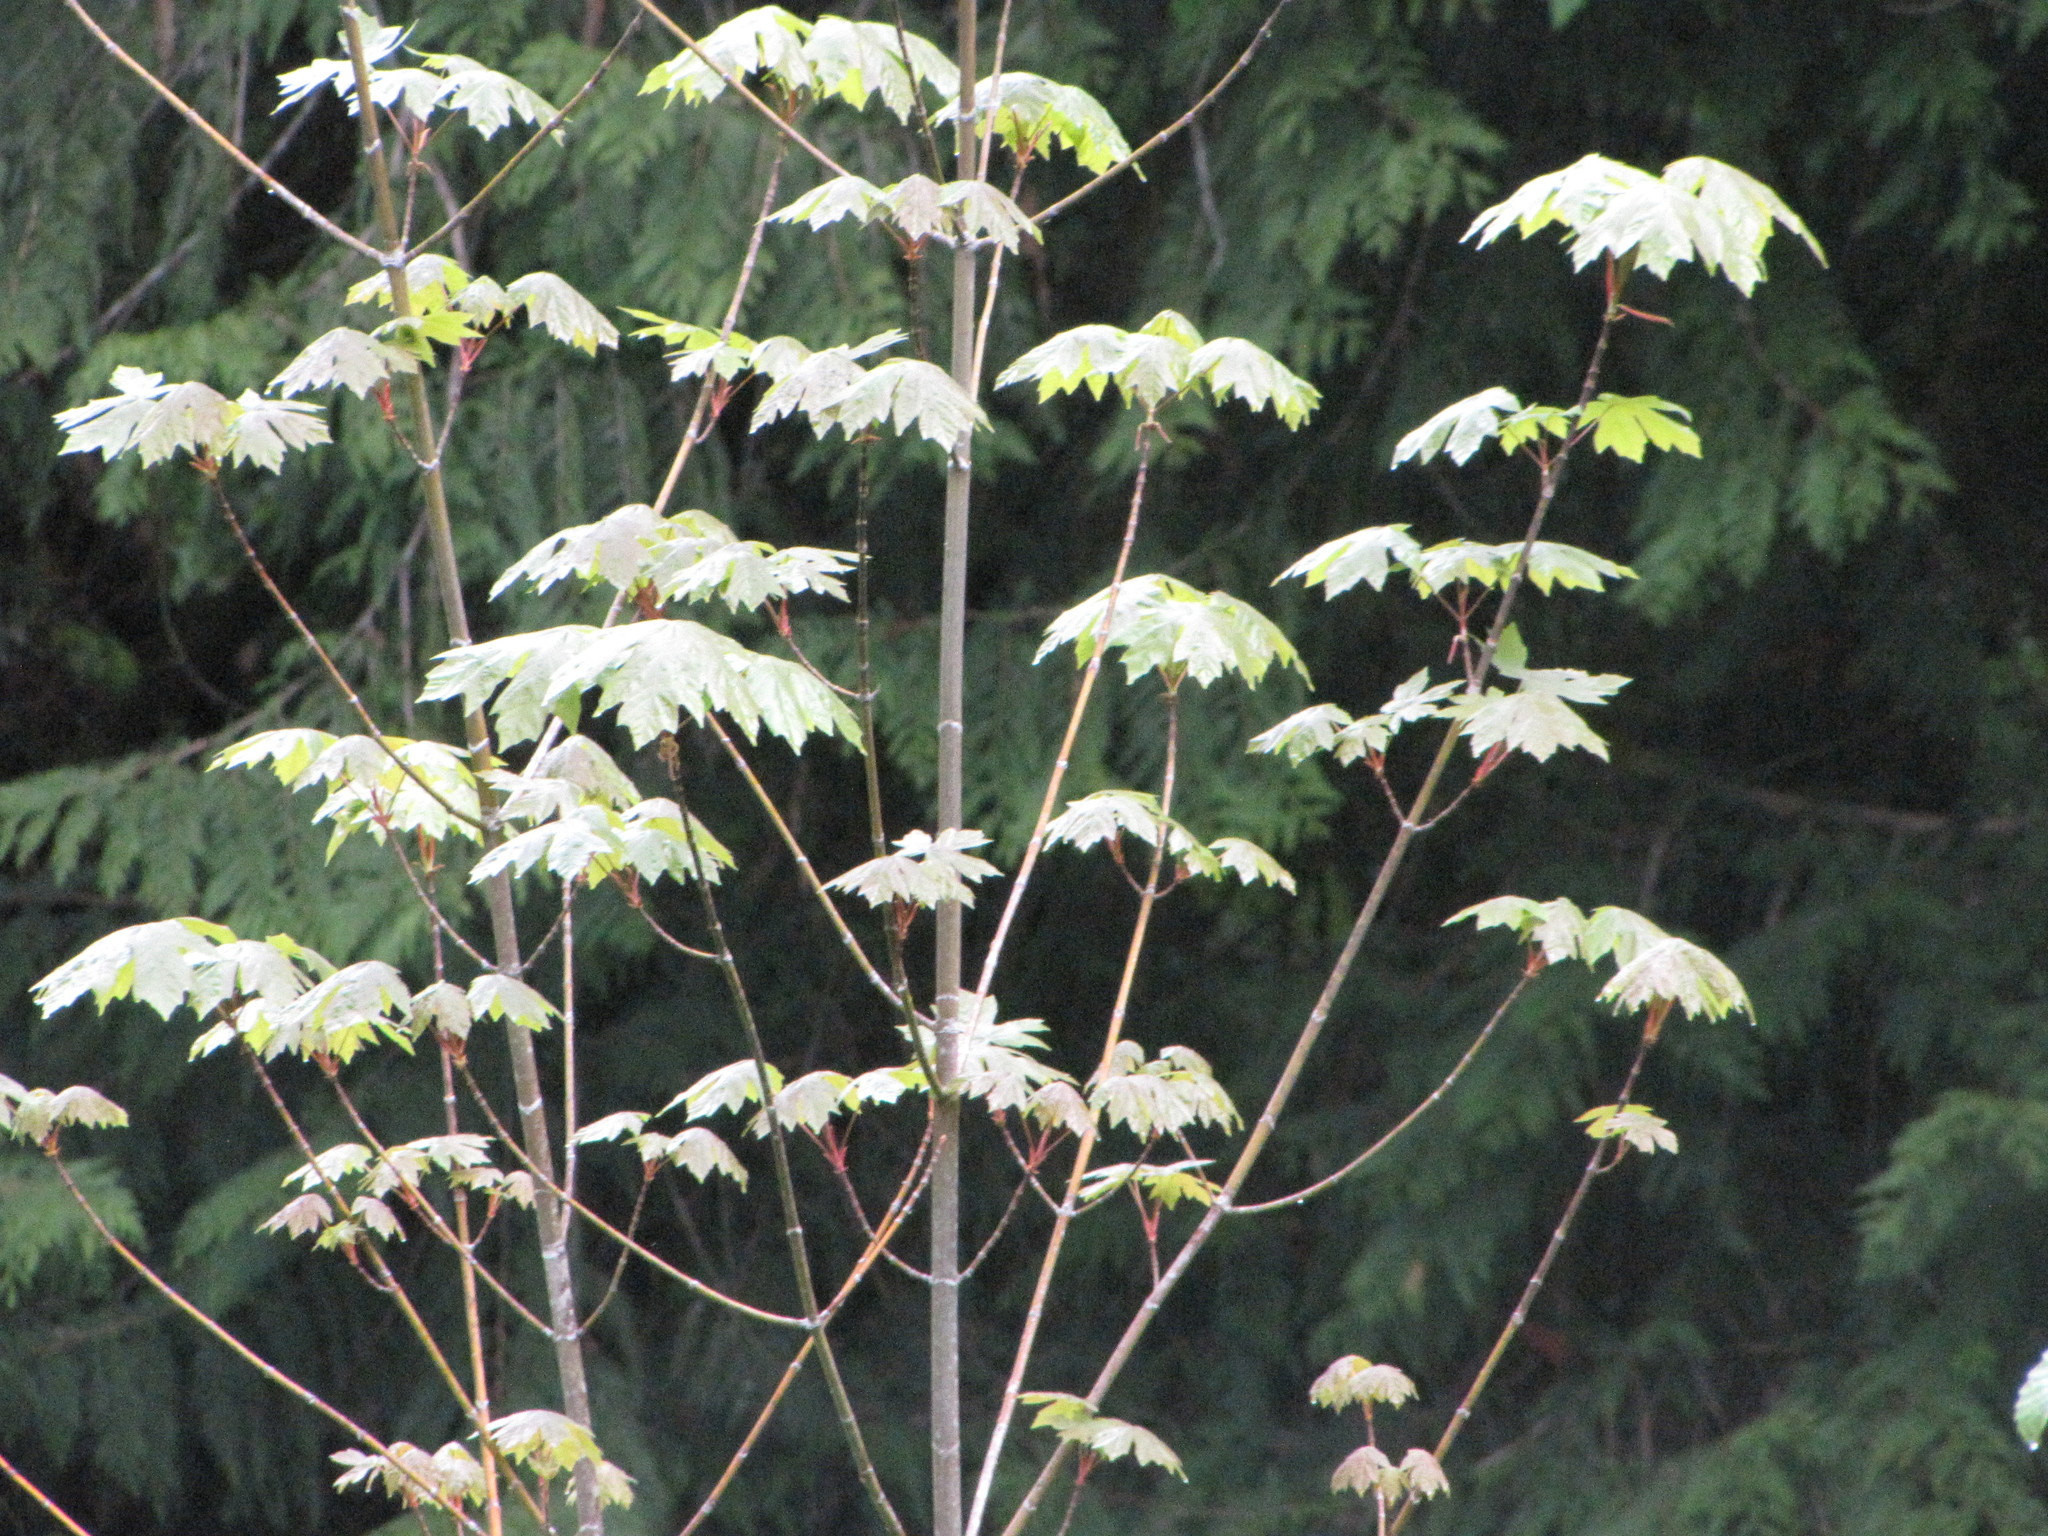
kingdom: Plantae
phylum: Tracheophyta
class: Magnoliopsida
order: Sapindales
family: Sapindaceae
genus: Acer
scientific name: Acer macrophyllum
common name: Oregon maple
